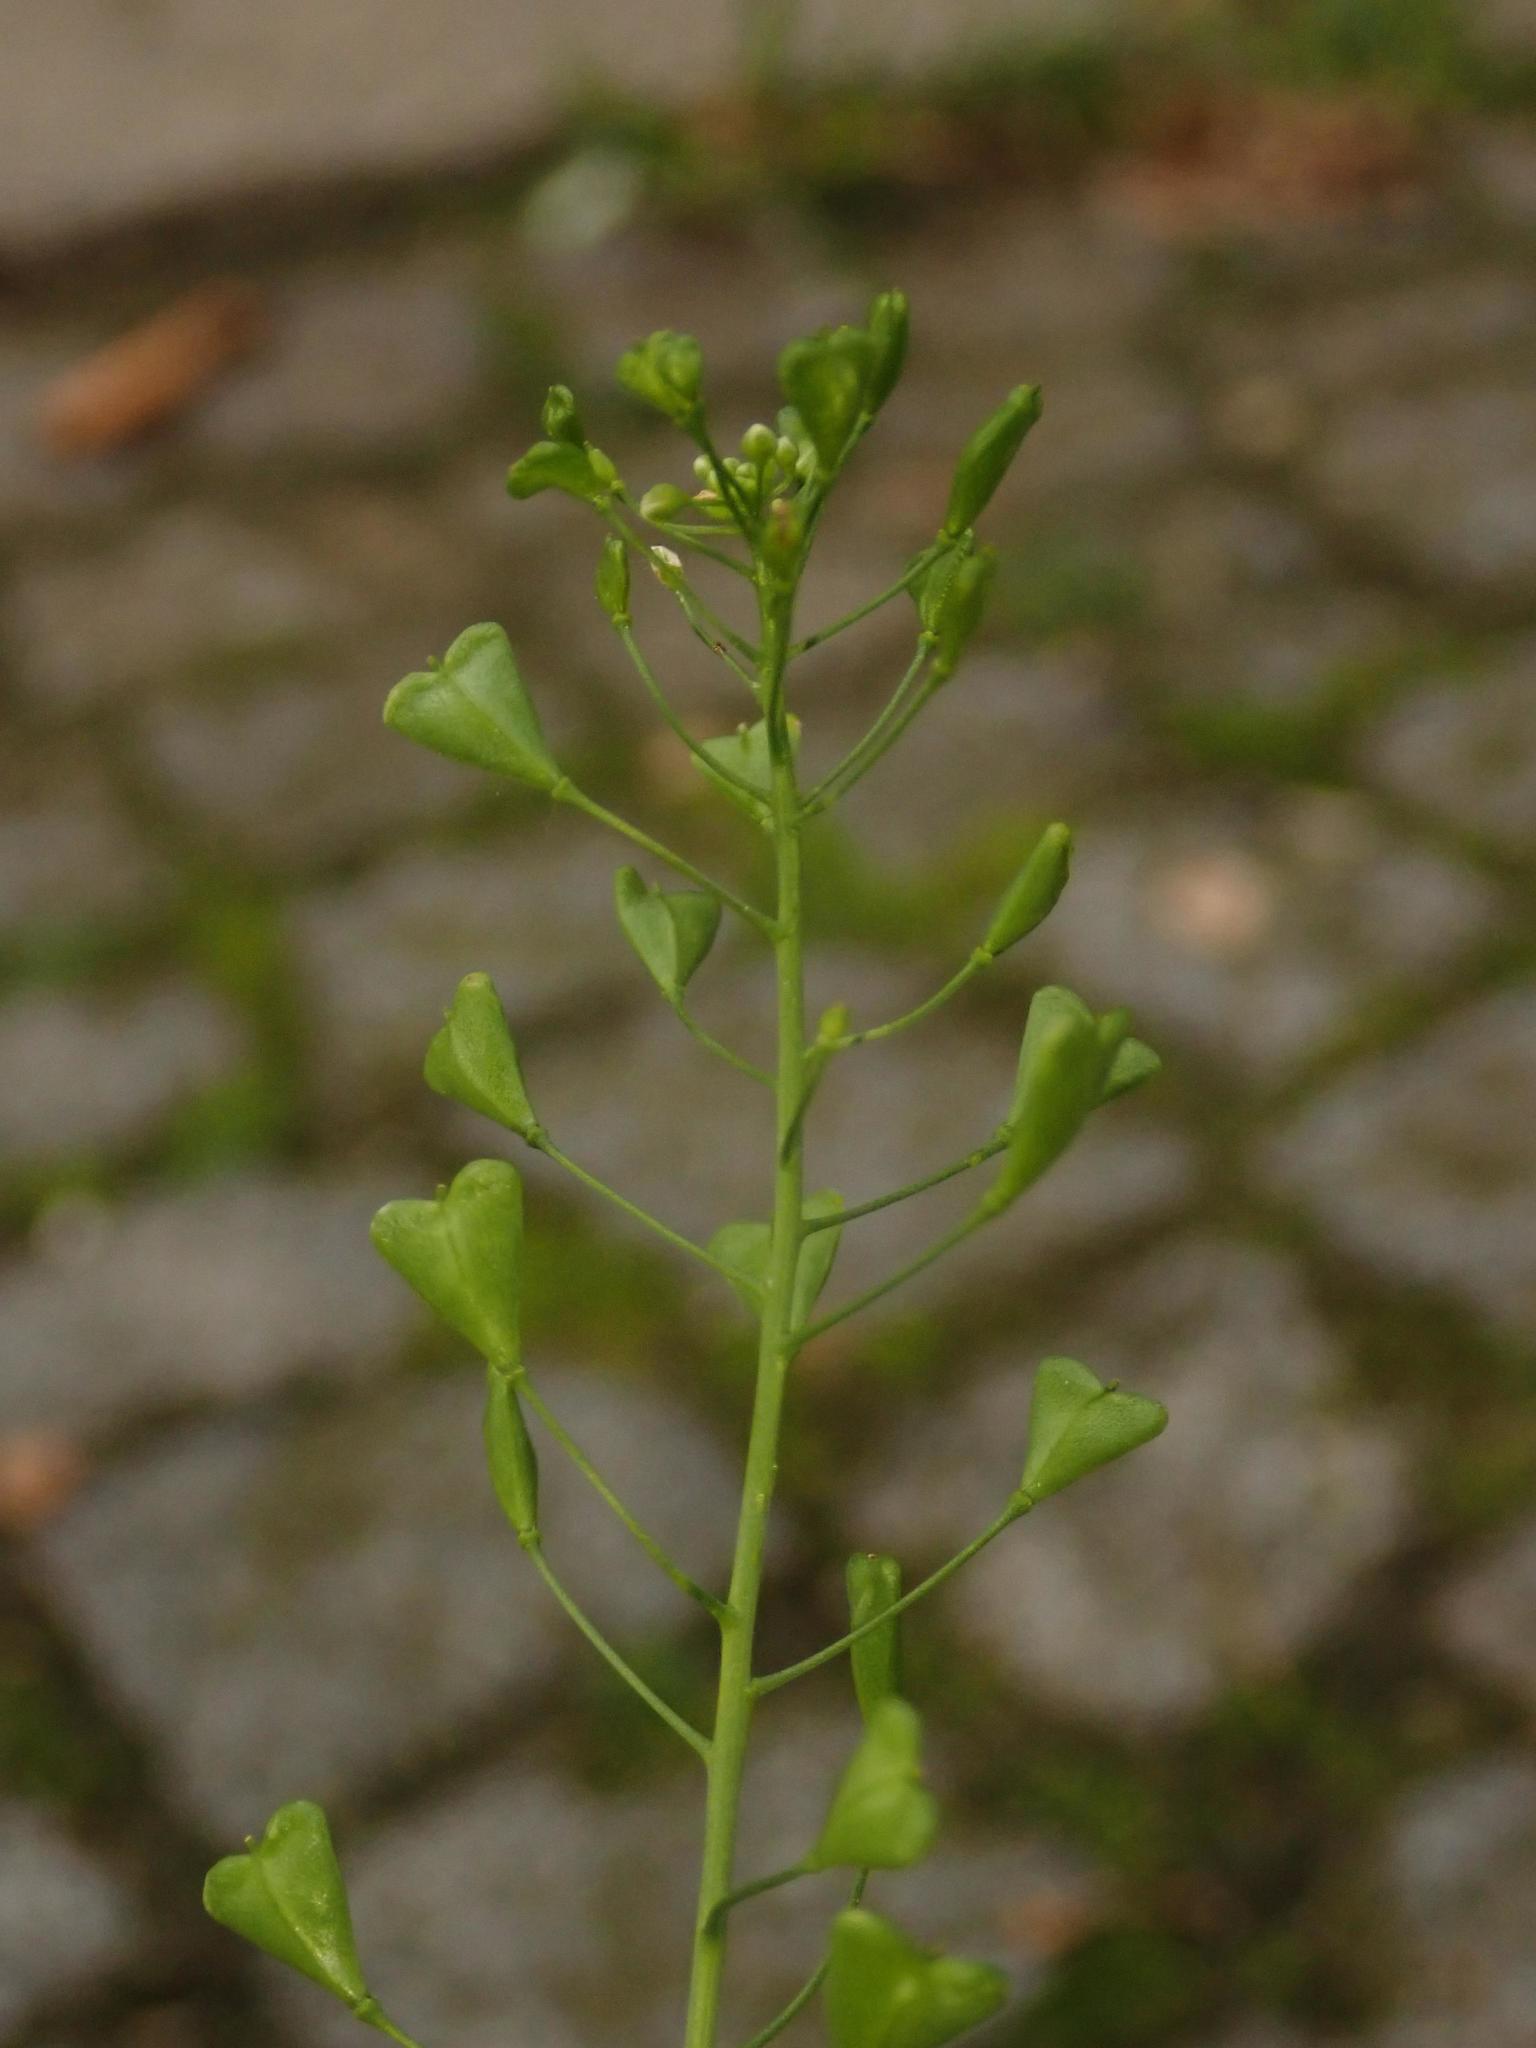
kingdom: Plantae
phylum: Tracheophyta
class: Magnoliopsida
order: Brassicales
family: Brassicaceae
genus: Capsella
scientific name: Capsella bursa-pastoris
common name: Shepherd's purse
